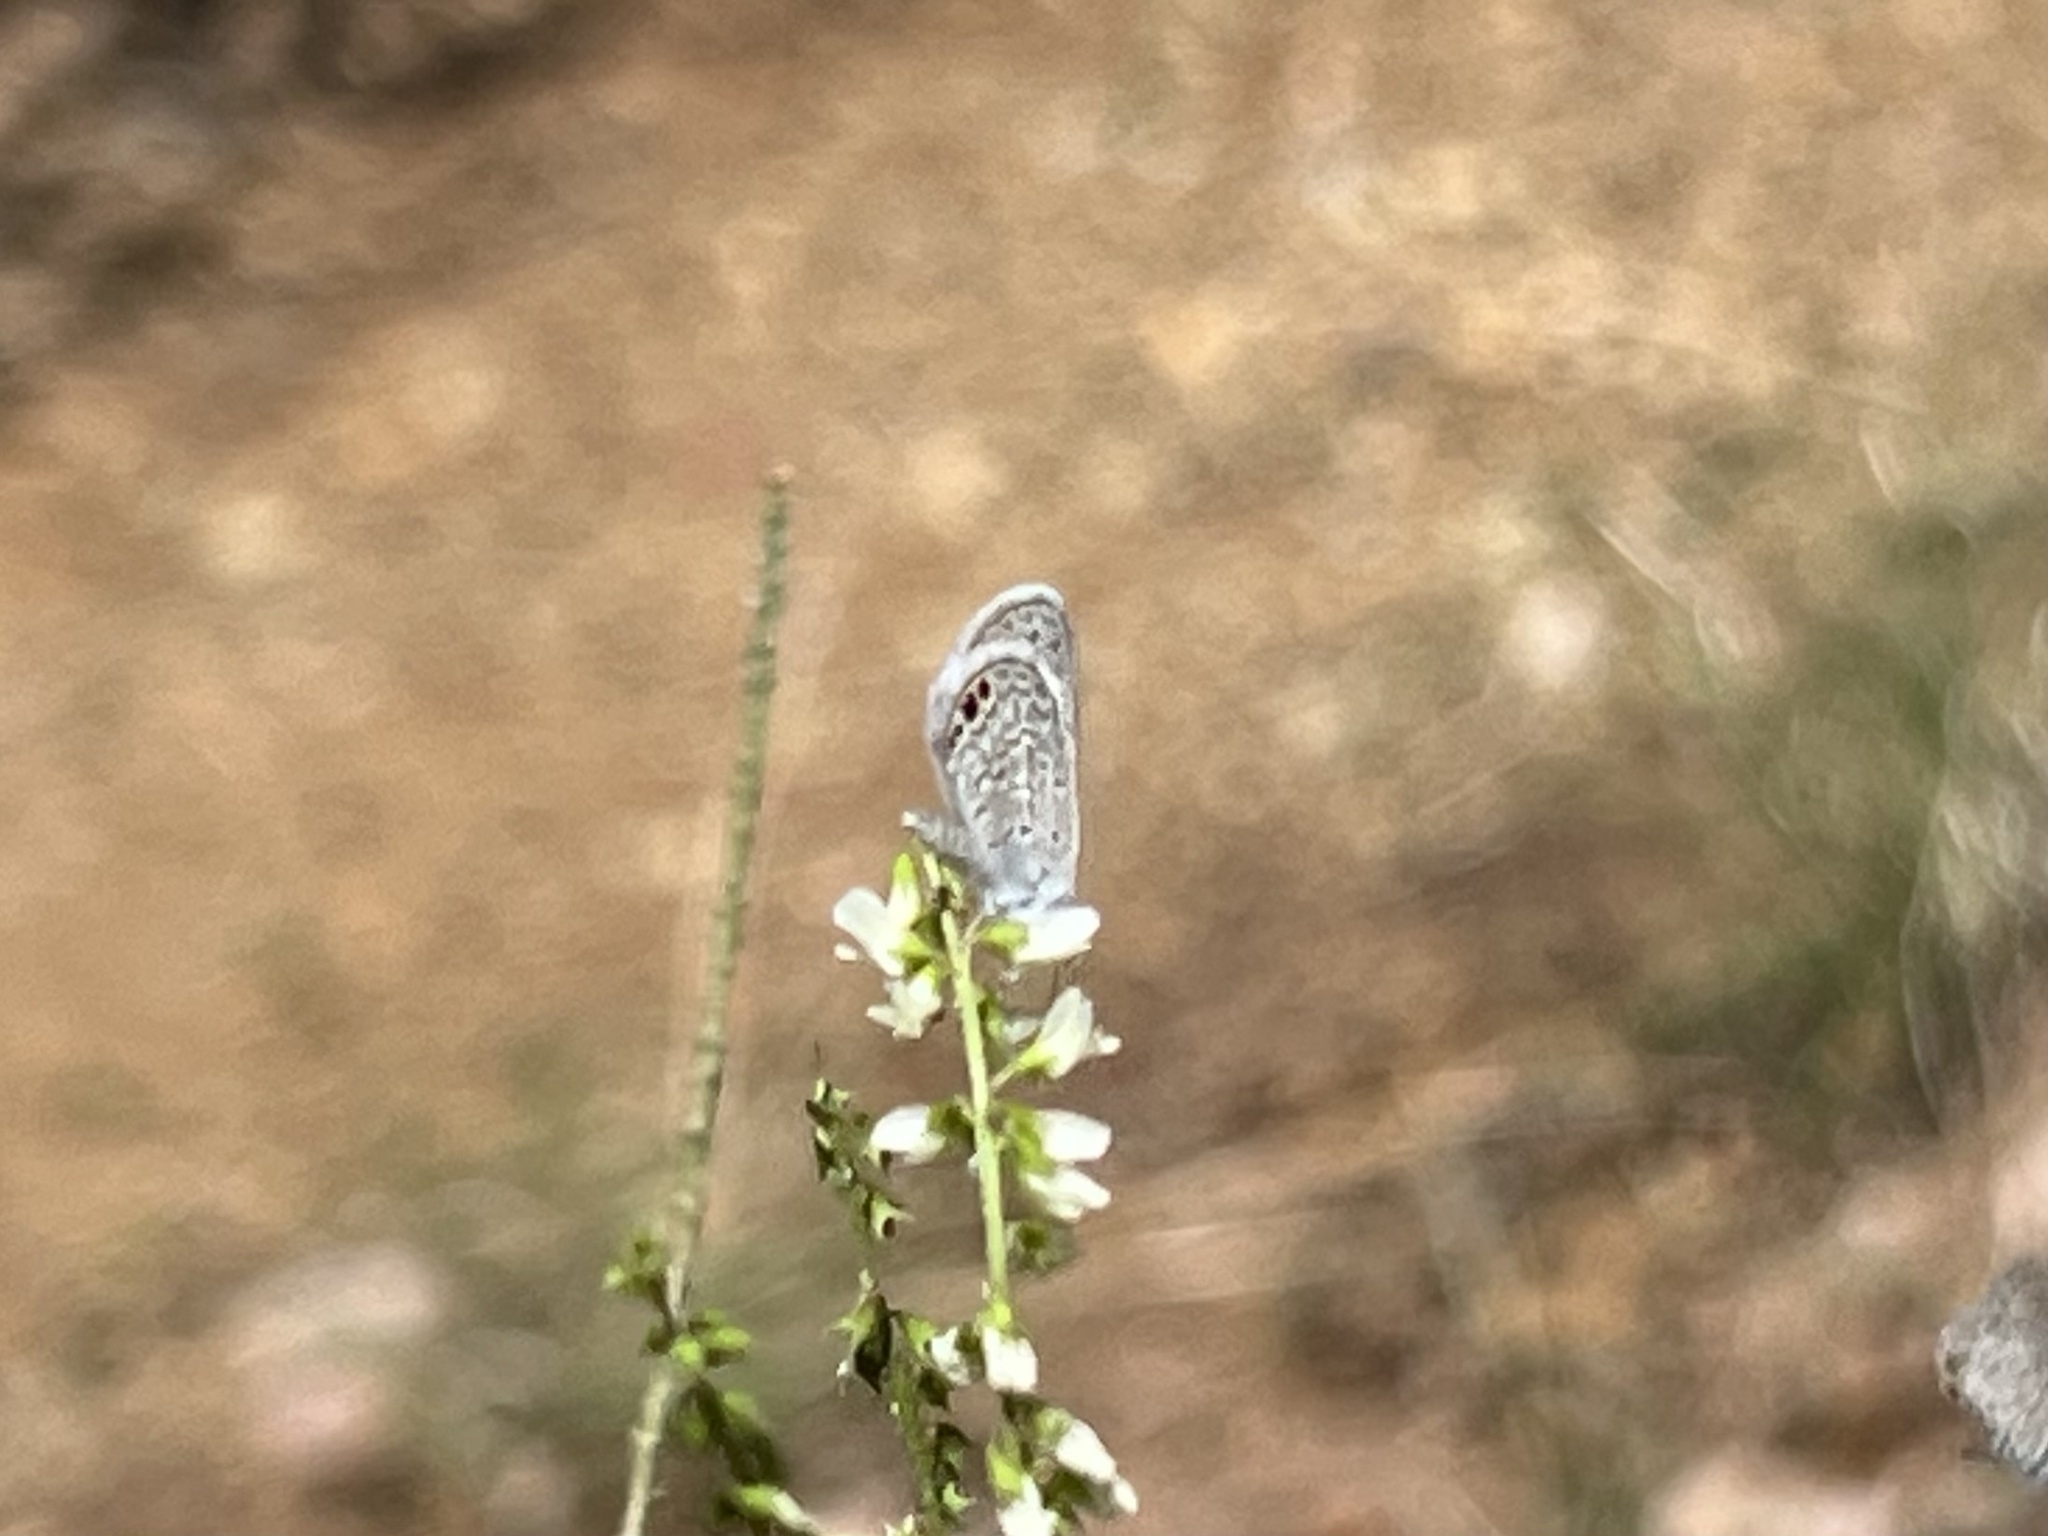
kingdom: Animalia
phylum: Arthropoda
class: Insecta
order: Lepidoptera
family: Lycaenidae
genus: Hemiargus
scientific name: Hemiargus ceraunus
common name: Ceraunus blue
